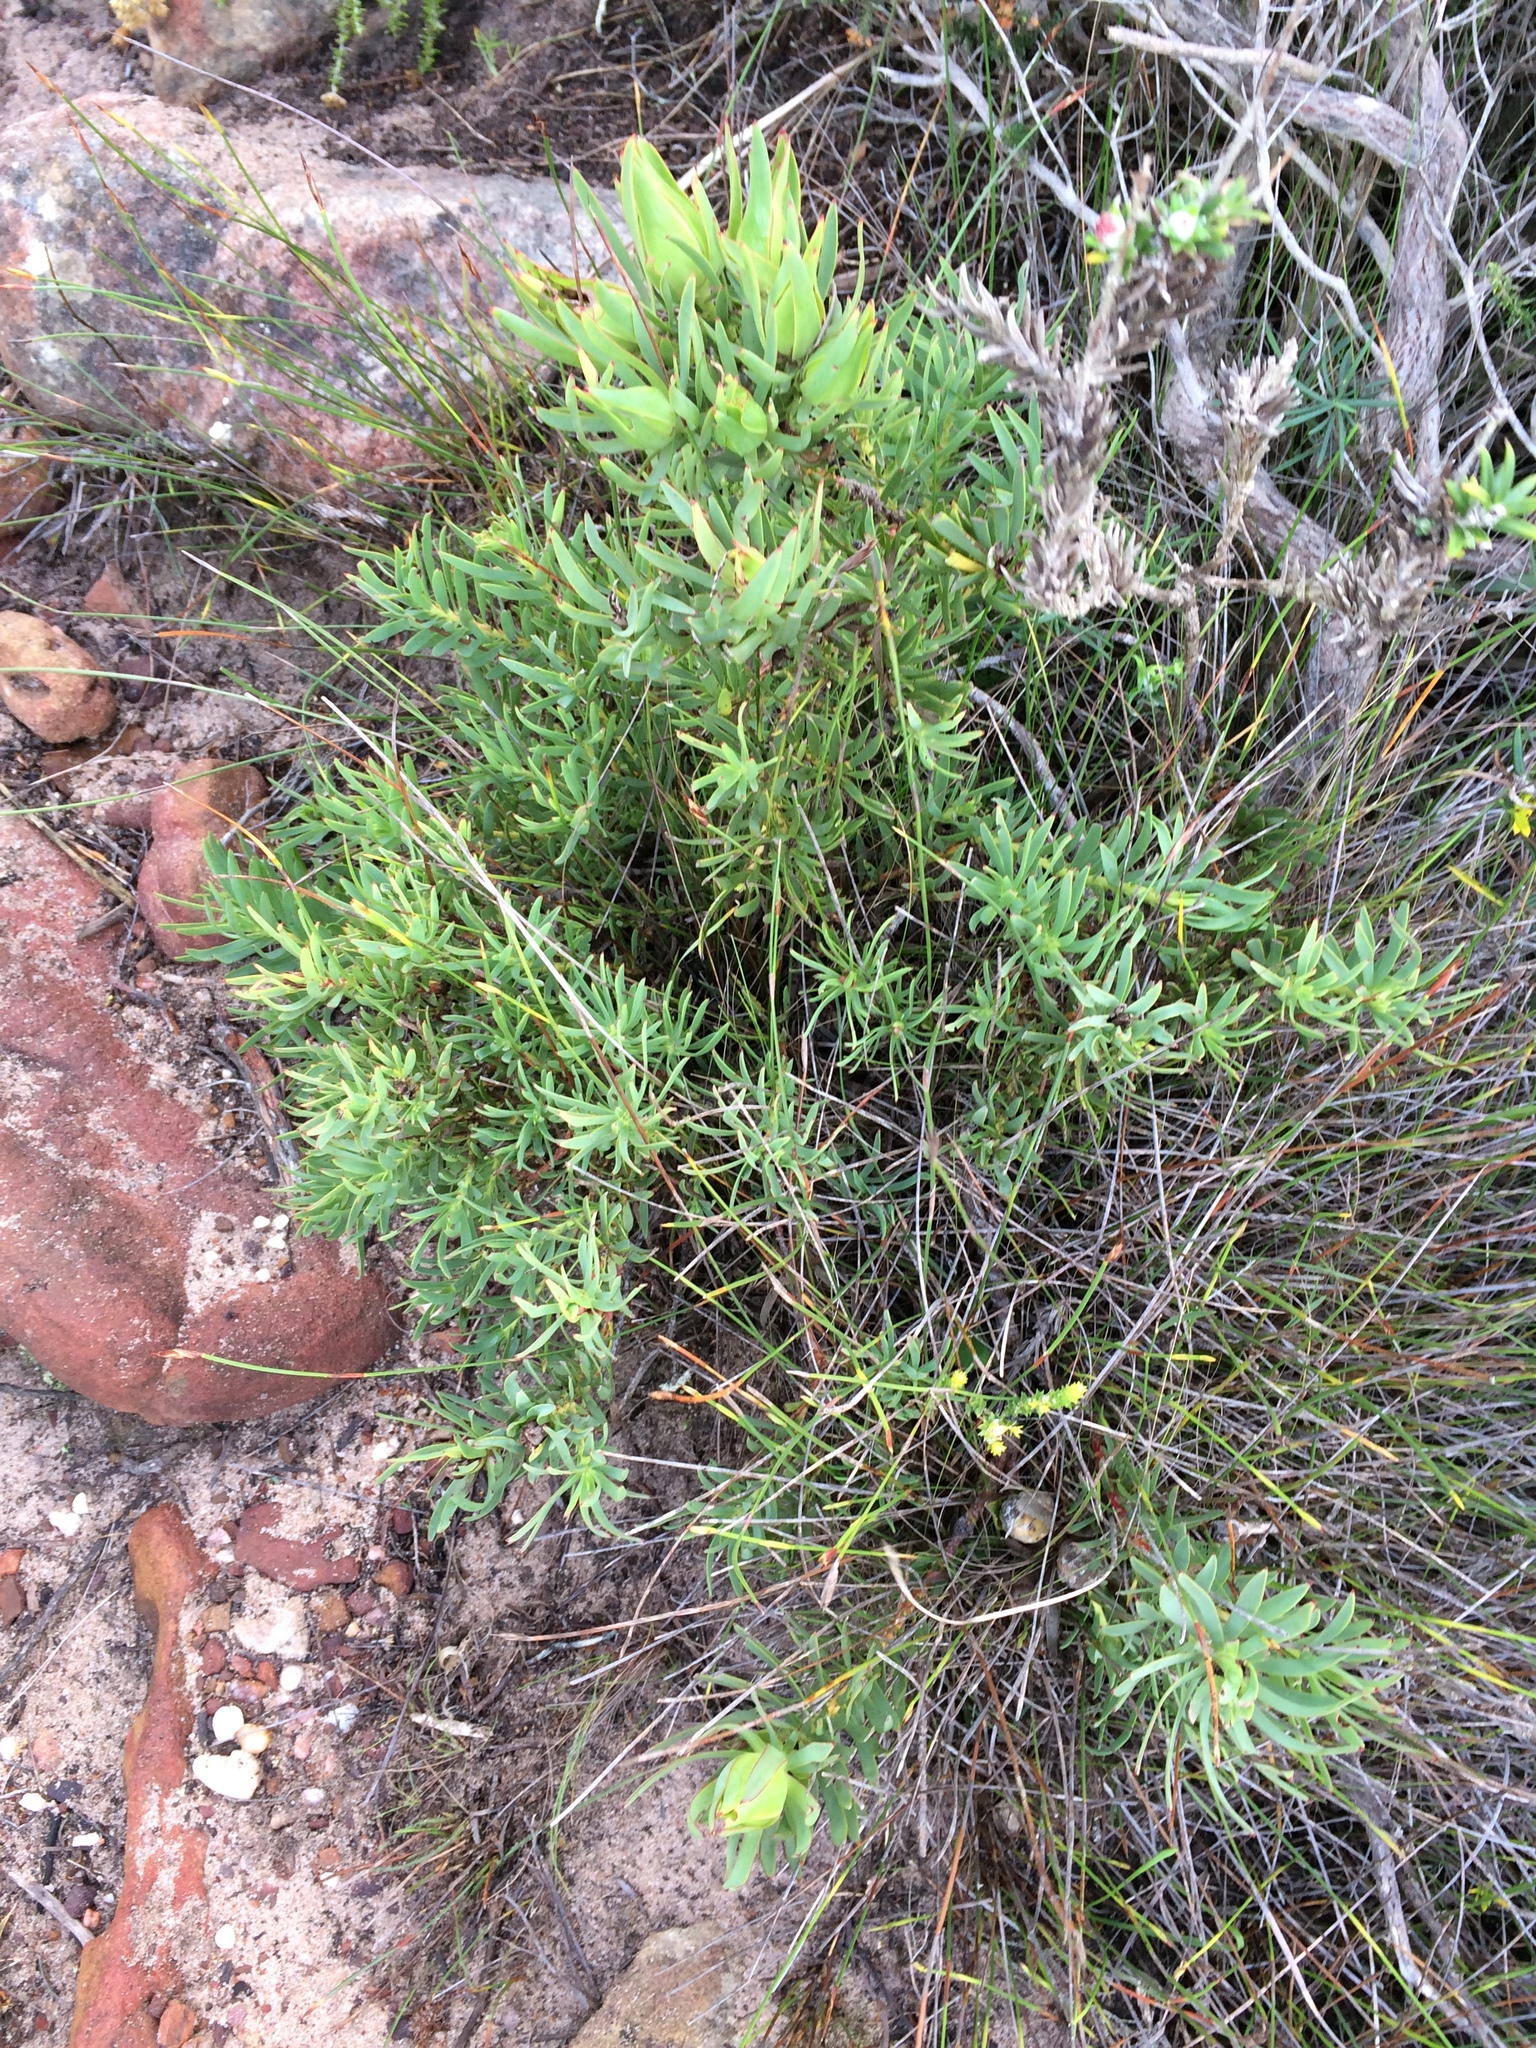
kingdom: Plantae
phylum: Tracheophyta
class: Magnoliopsida
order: Proteales
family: Proteaceae
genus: Leucadendron
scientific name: Leucadendron salignum
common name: Common sunshine conebush
